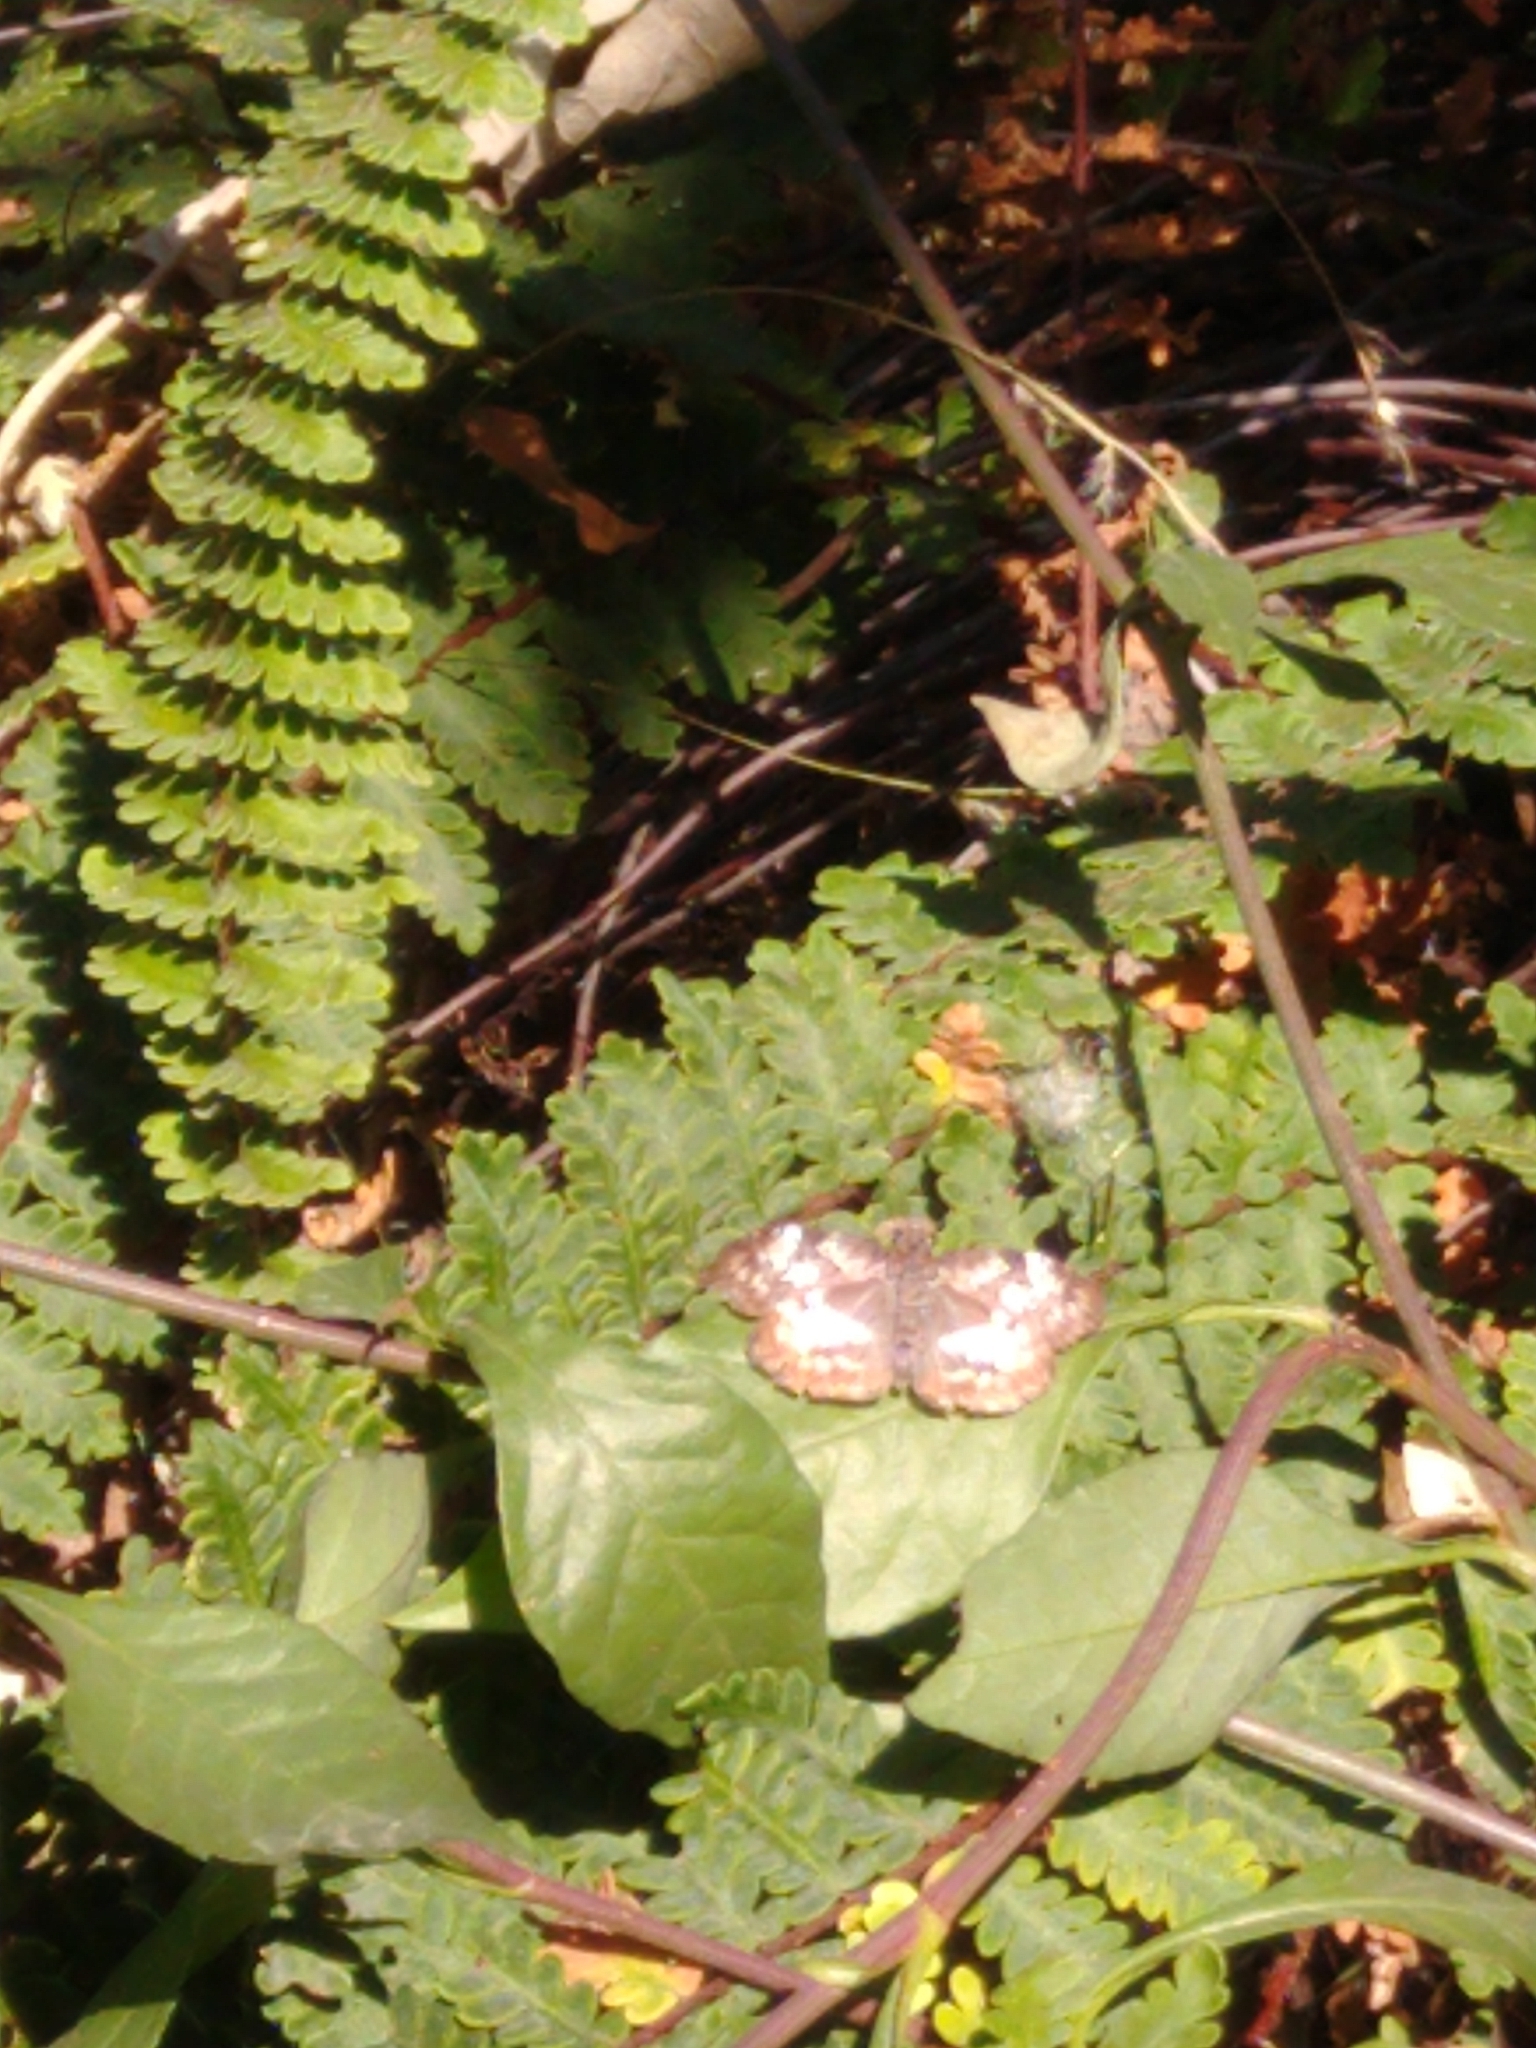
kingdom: Animalia
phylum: Arthropoda
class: Insecta
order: Lepidoptera
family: Hesperiidae
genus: Chiothion
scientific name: Chiothion georgina
